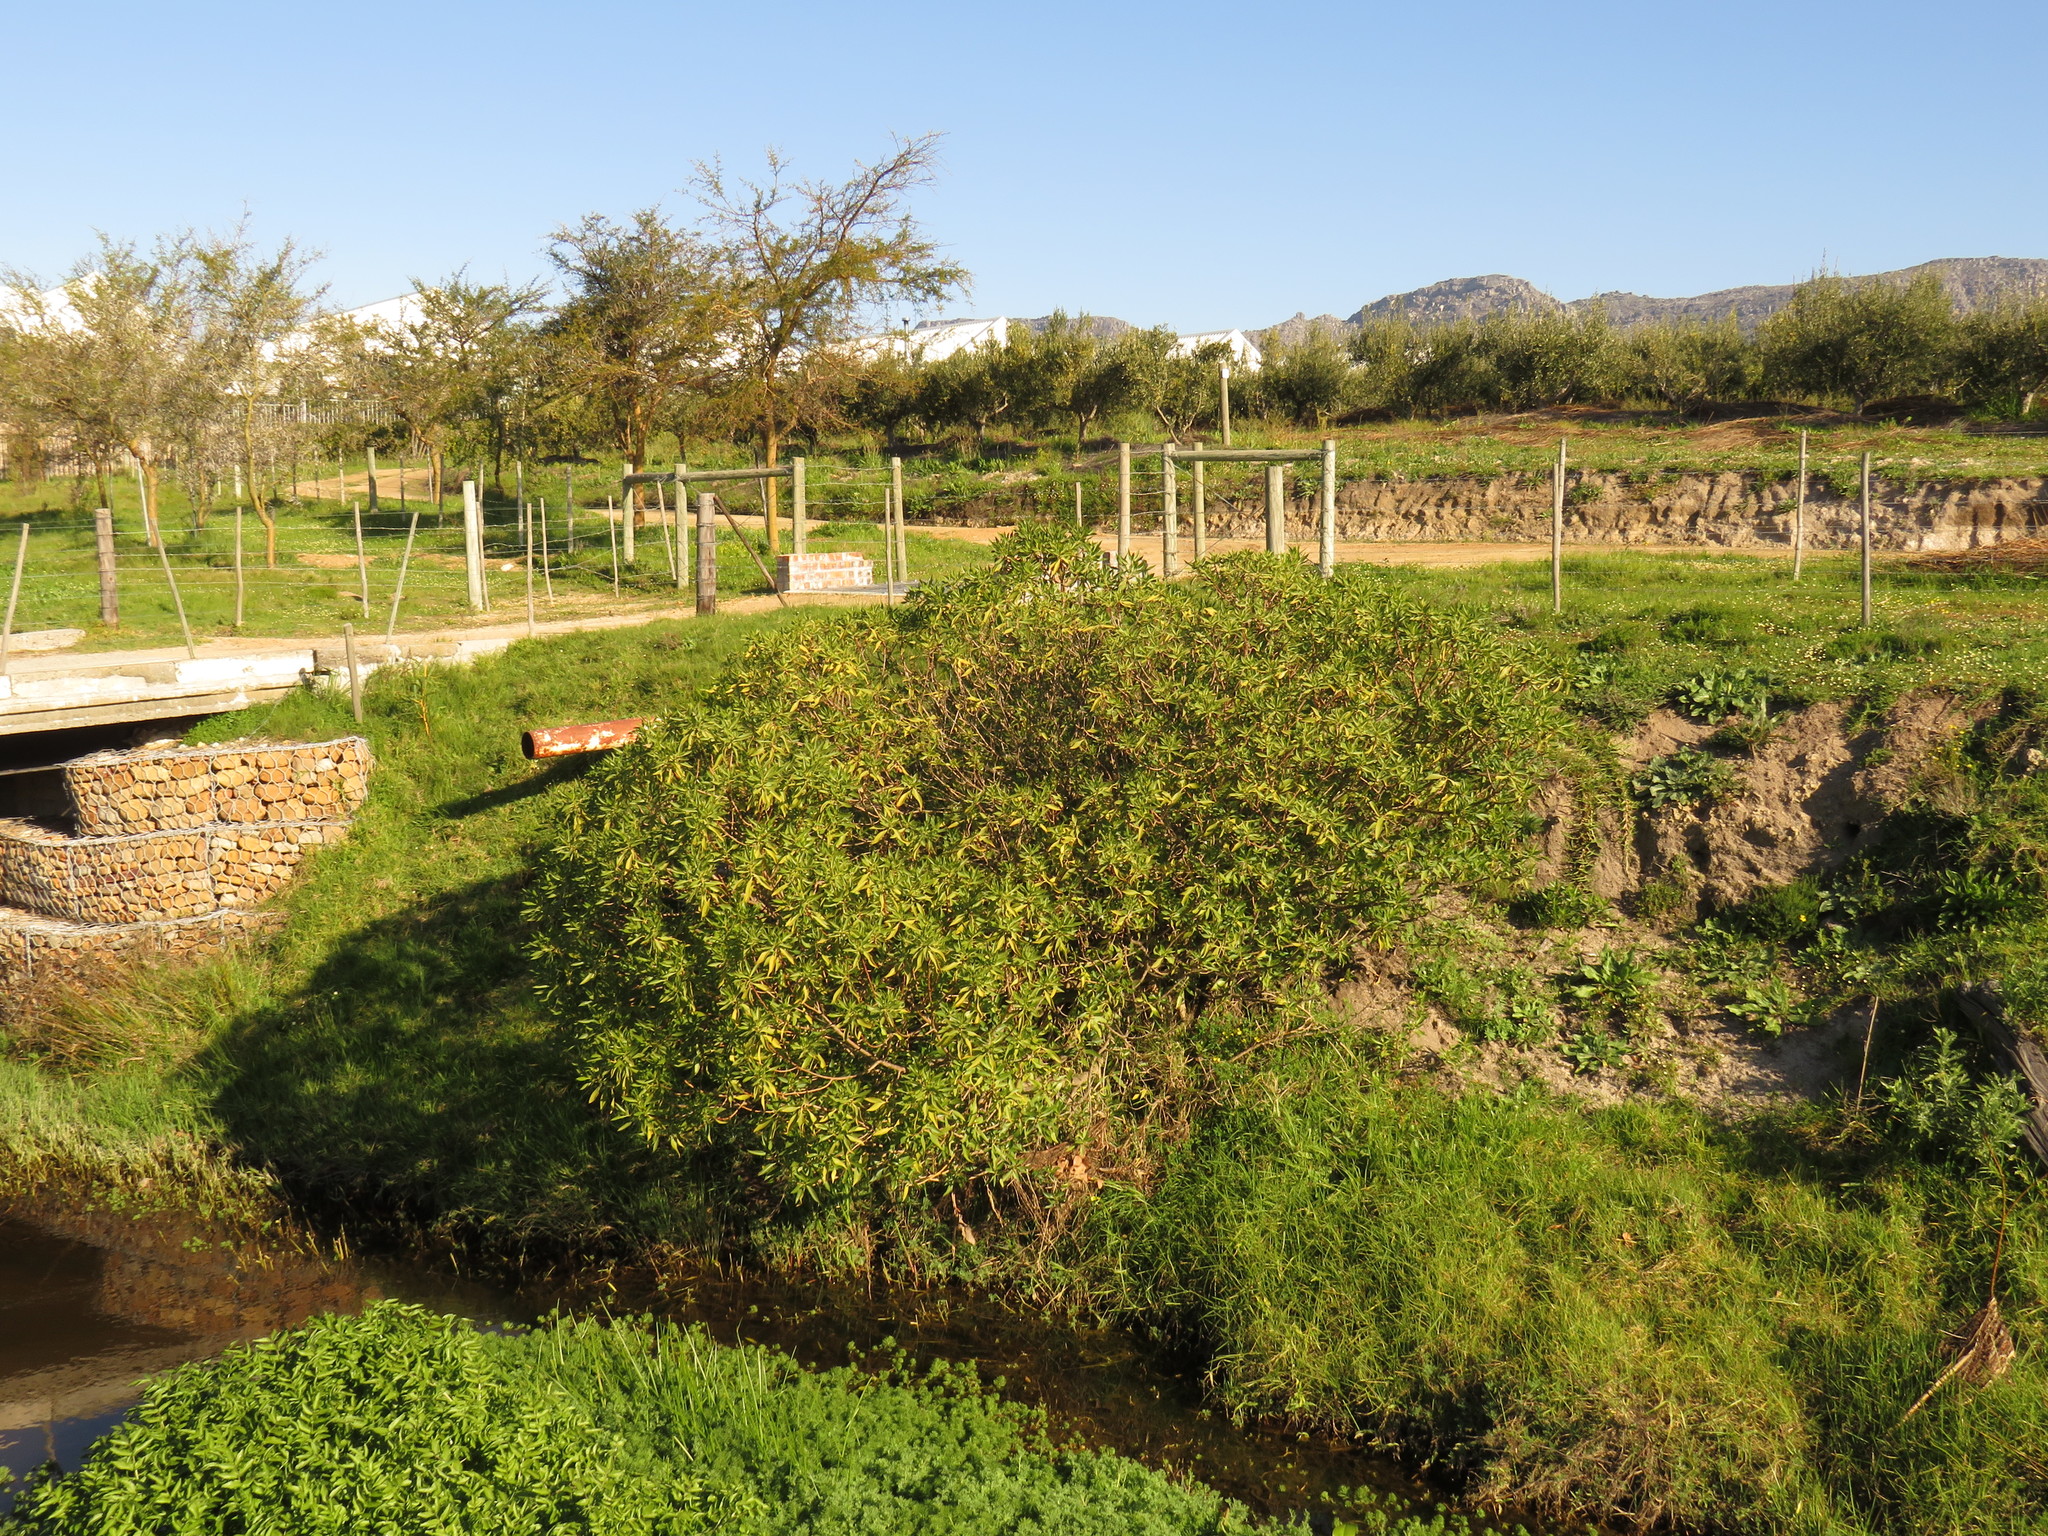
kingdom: Plantae
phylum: Tracheophyta
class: Magnoliopsida
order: Lamiales
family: Scrophulariaceae
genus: Myoporum
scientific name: Myoporum insulare
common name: Common boobialla
